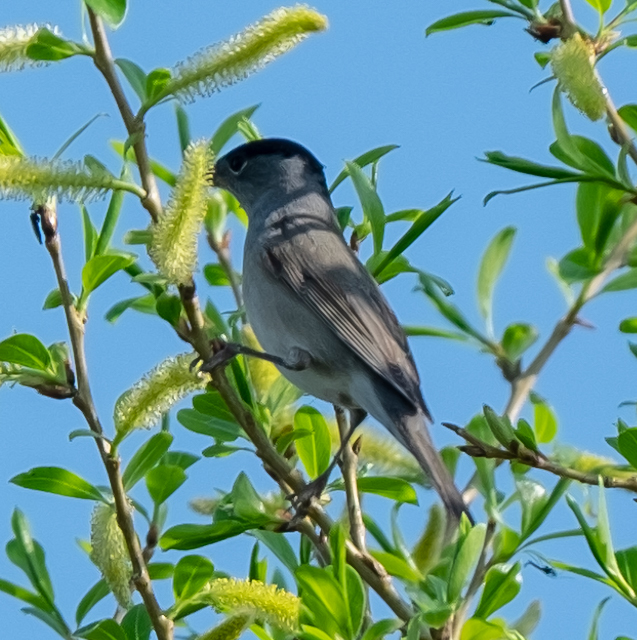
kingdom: Animalia
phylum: Chordata
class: Aves
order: Passeriformes
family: Sylviidae
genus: Sylvia
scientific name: Sylvia atricapilla
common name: Eurasian blackcap
